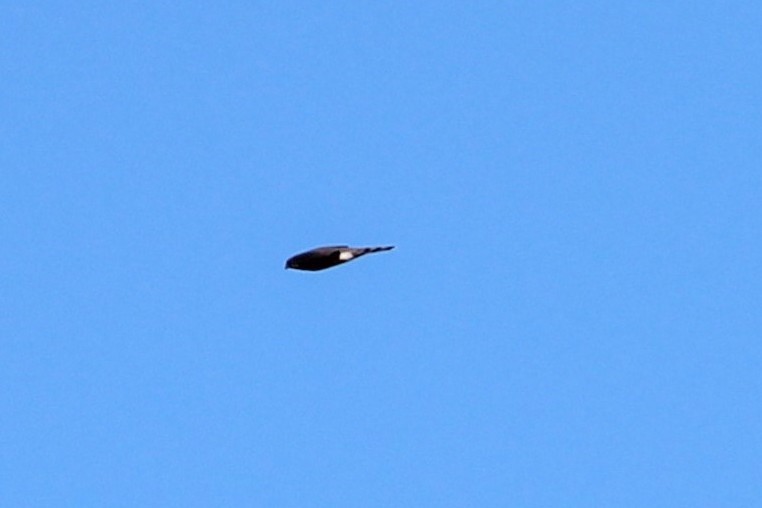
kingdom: Animalia
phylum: Chordata
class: Aves
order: Accipitriformes
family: Accipitridae
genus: Accipiter
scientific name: Accipiter striatus
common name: Sharp-shinned hawk
